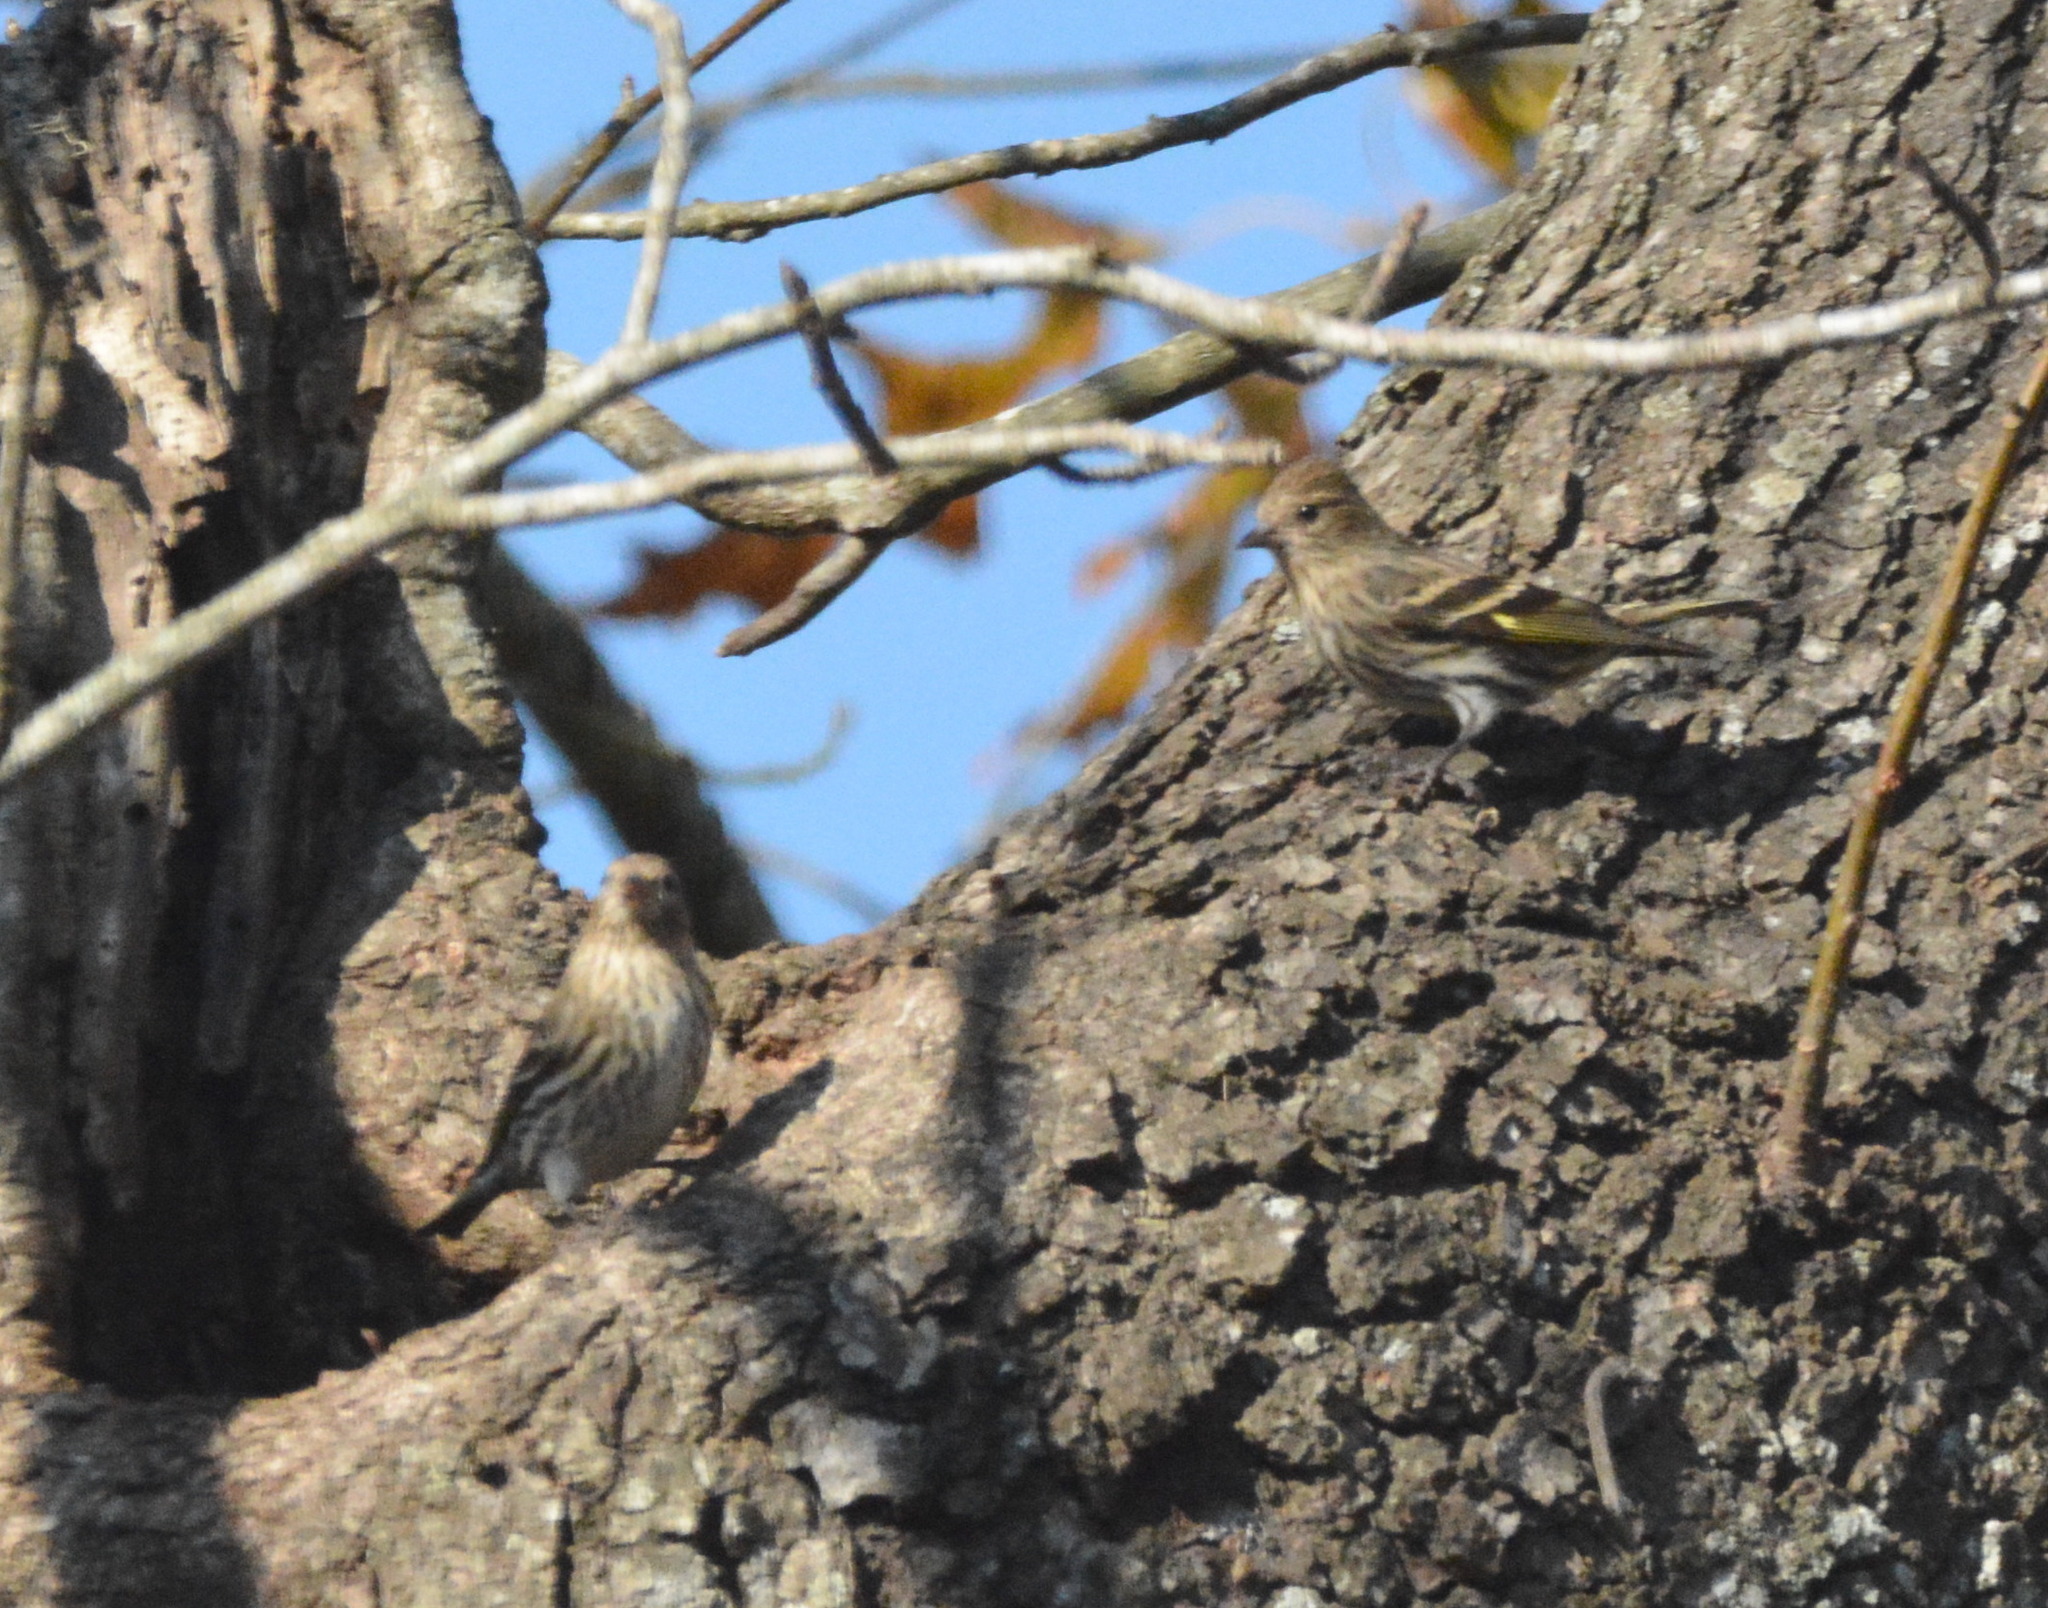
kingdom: Animalia
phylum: Chordata
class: Aves
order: Passeriformes
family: Fringillidae
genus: Spinus
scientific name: Spinus pinus
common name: Pine siskin
